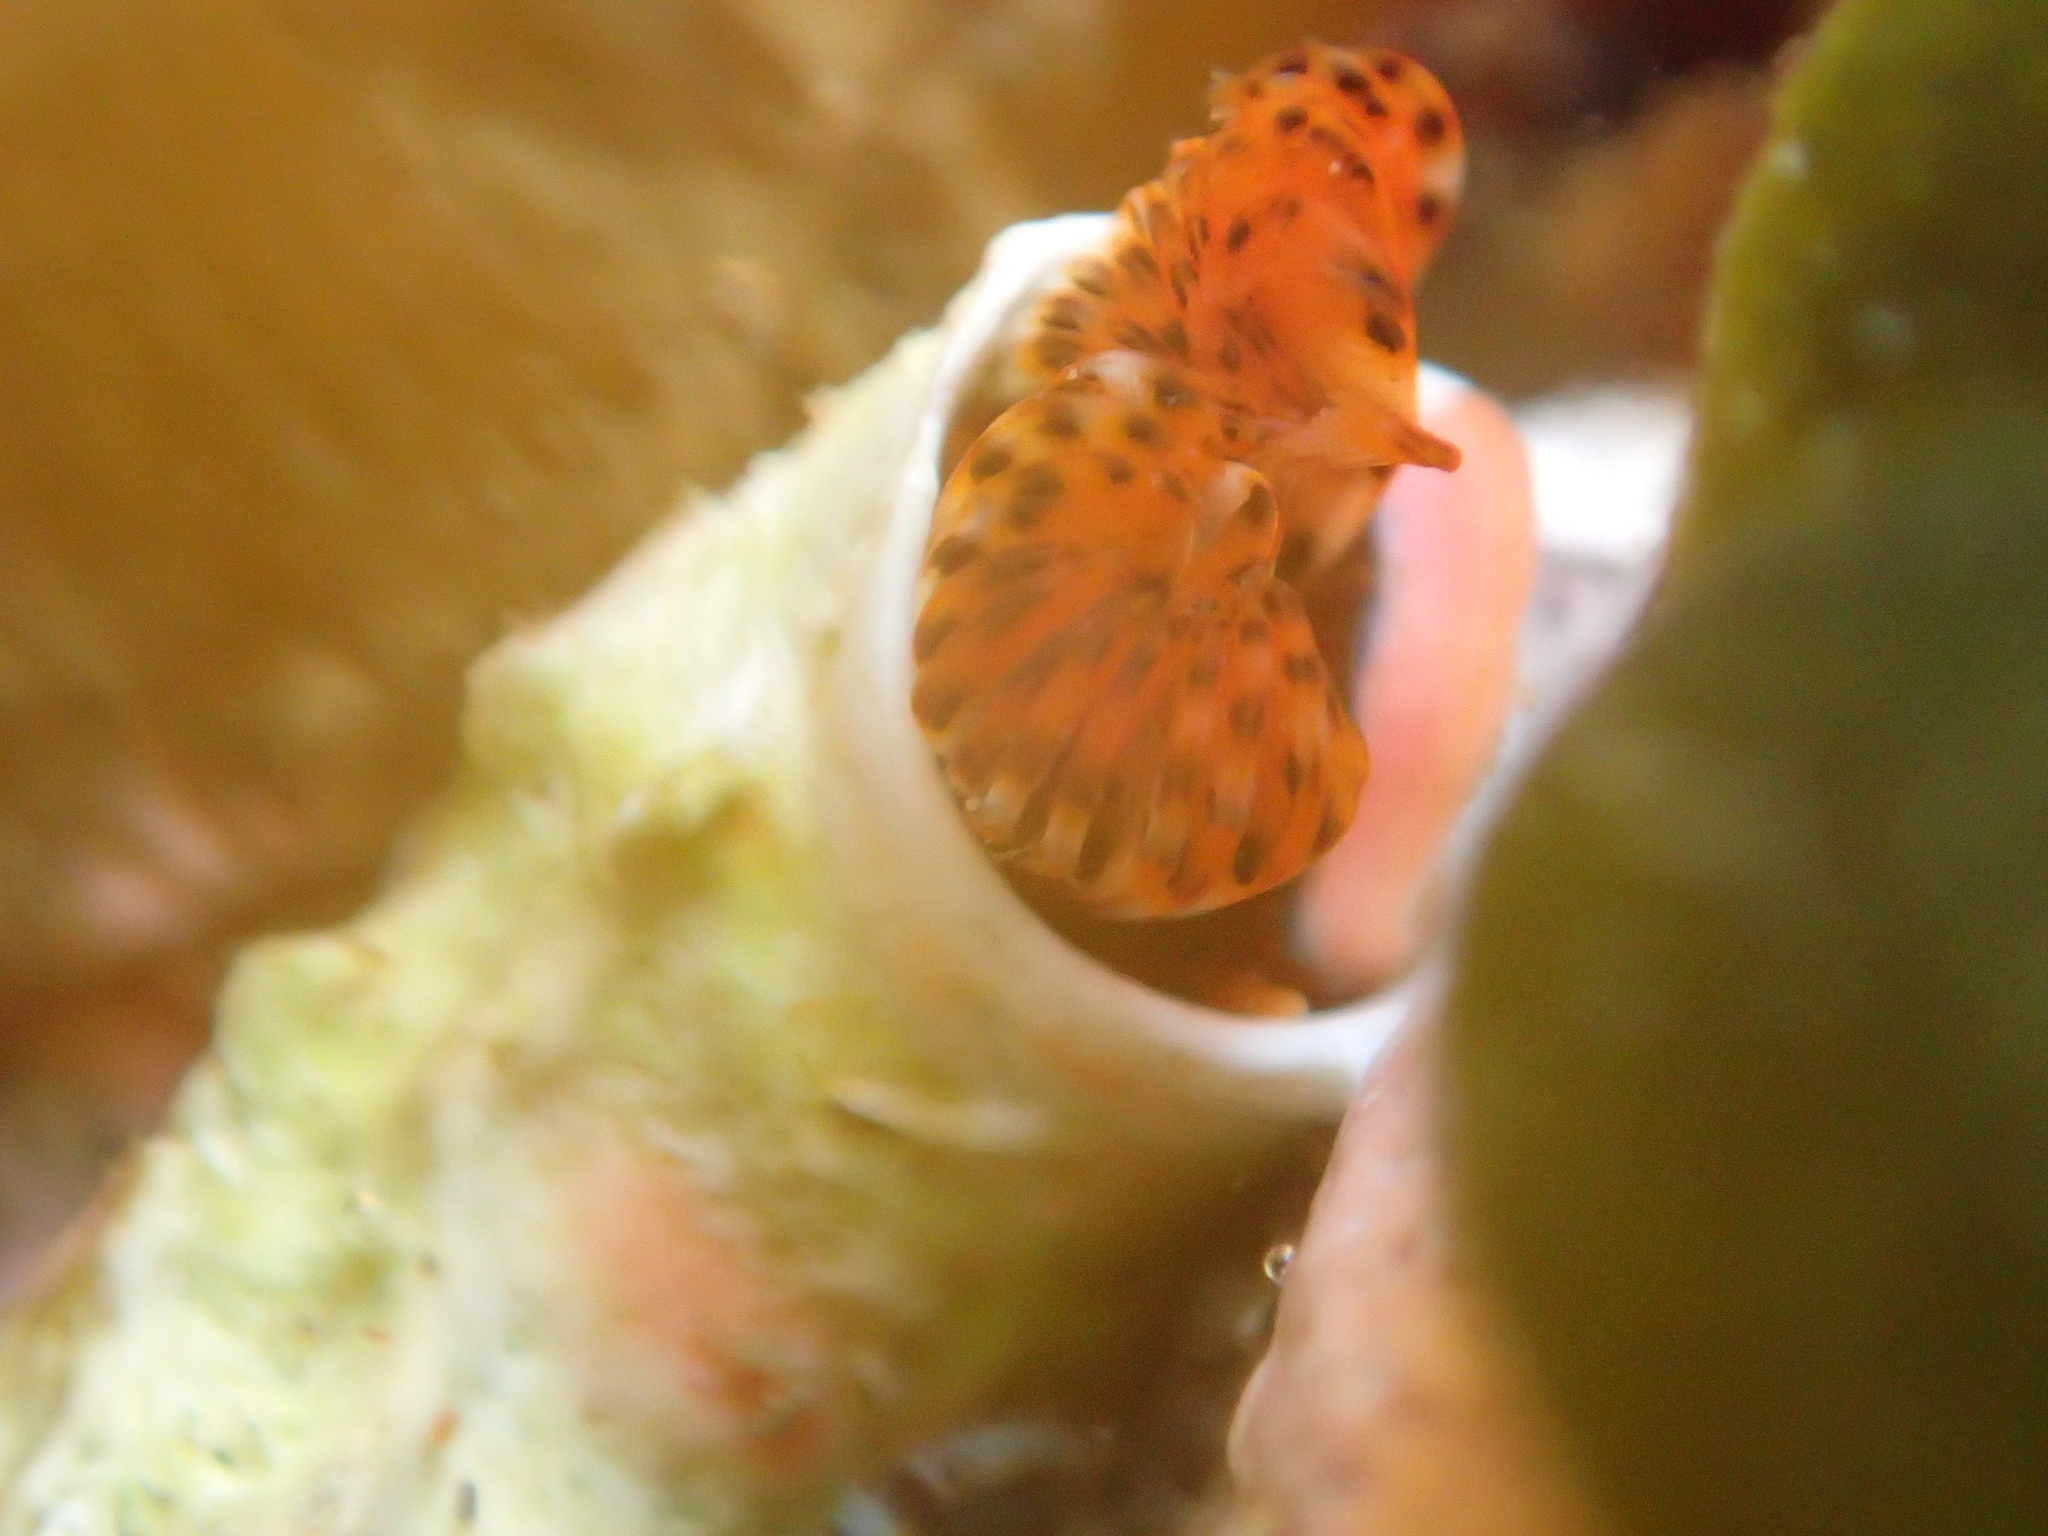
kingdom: Animalia
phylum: Annelida
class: Polychaeta
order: Sabellida
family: Serpulidae
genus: Galeolaria
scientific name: Galeolaria hystrix
